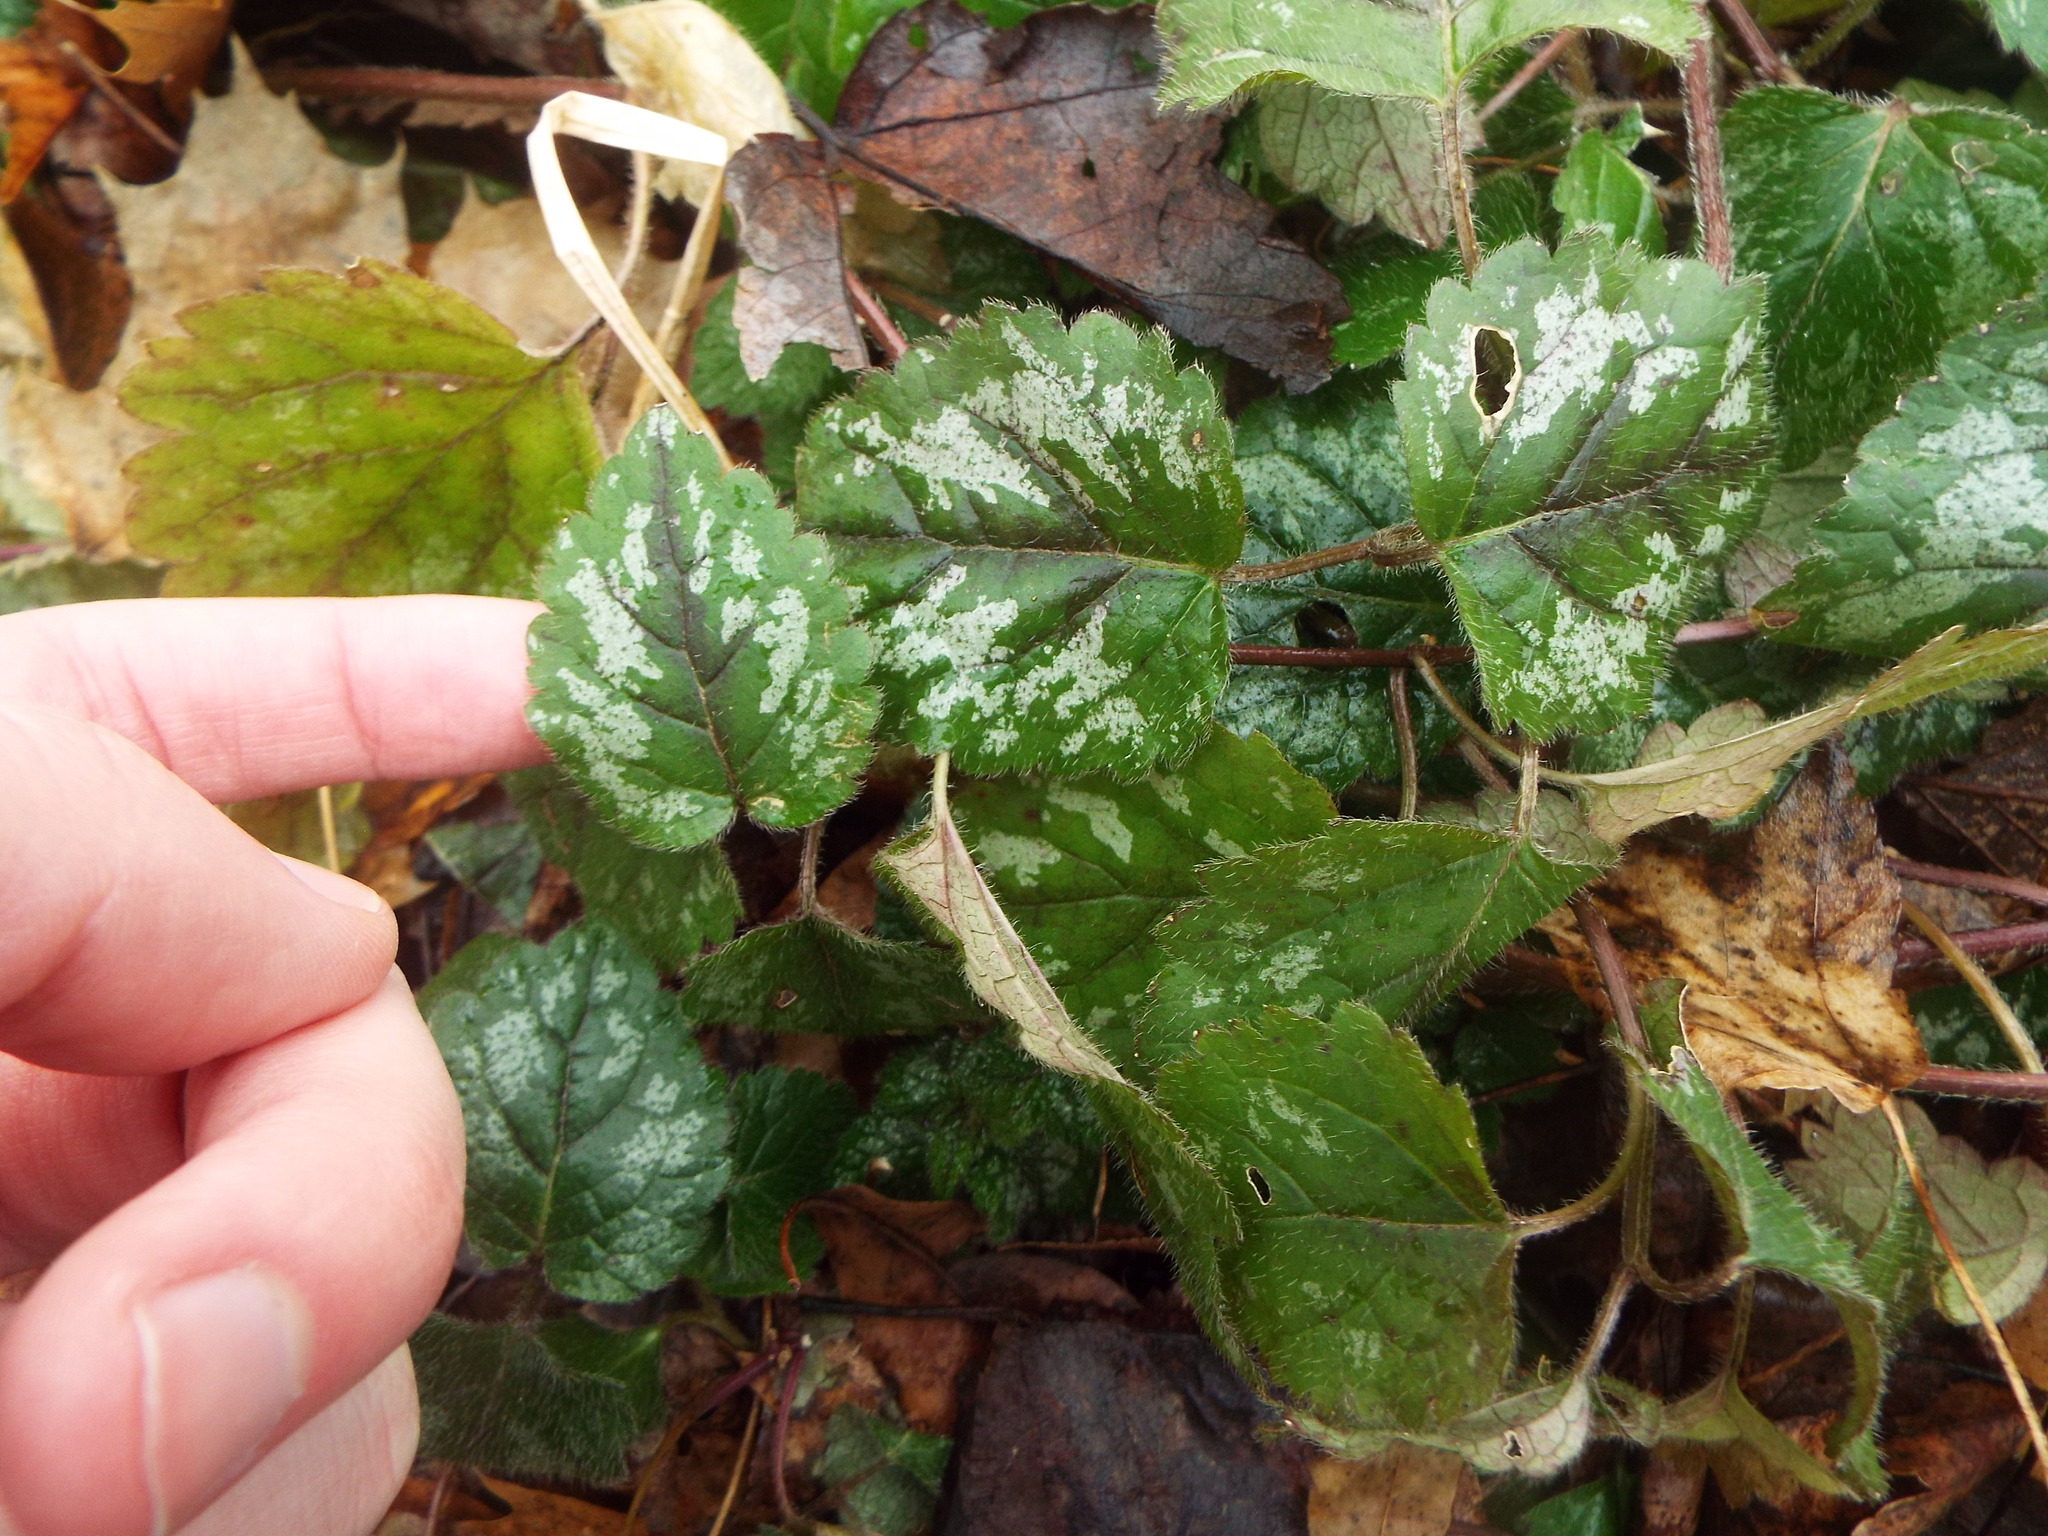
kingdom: Plantae
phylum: Tracheophyta
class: Magnoliopsida
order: Lamiales
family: Lamiaceae
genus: Lamium
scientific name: Lamium galeobdolon
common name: Yellow archangel
